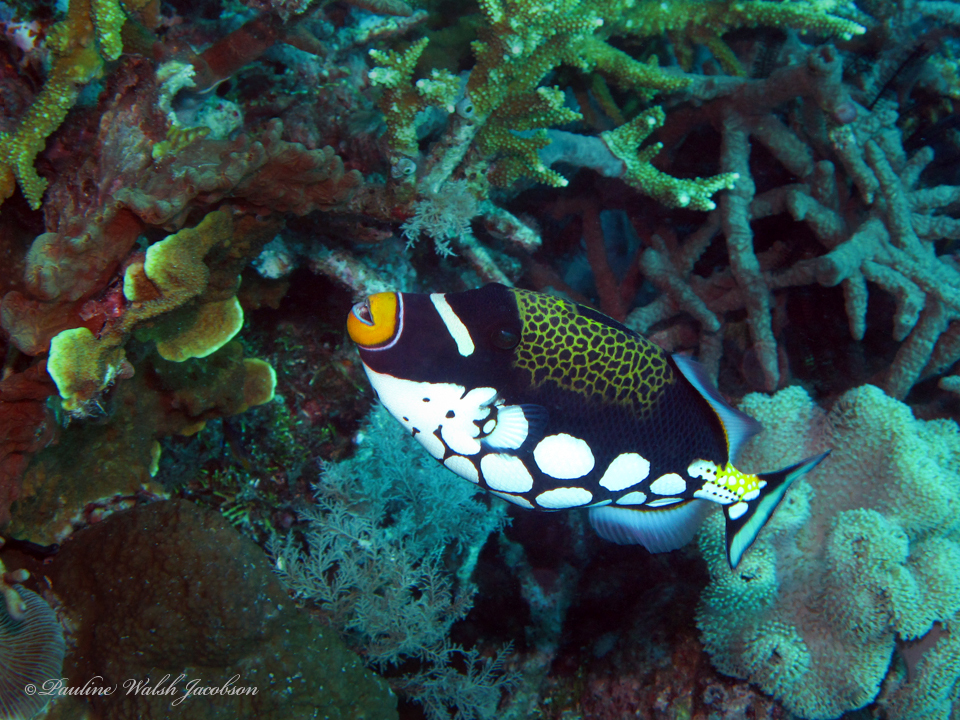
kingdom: Animalia
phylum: Chordata
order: Tetraodontiformes
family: Balistidae
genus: Balistoides
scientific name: Balistoides conspicillum
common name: Clown triggerfish
